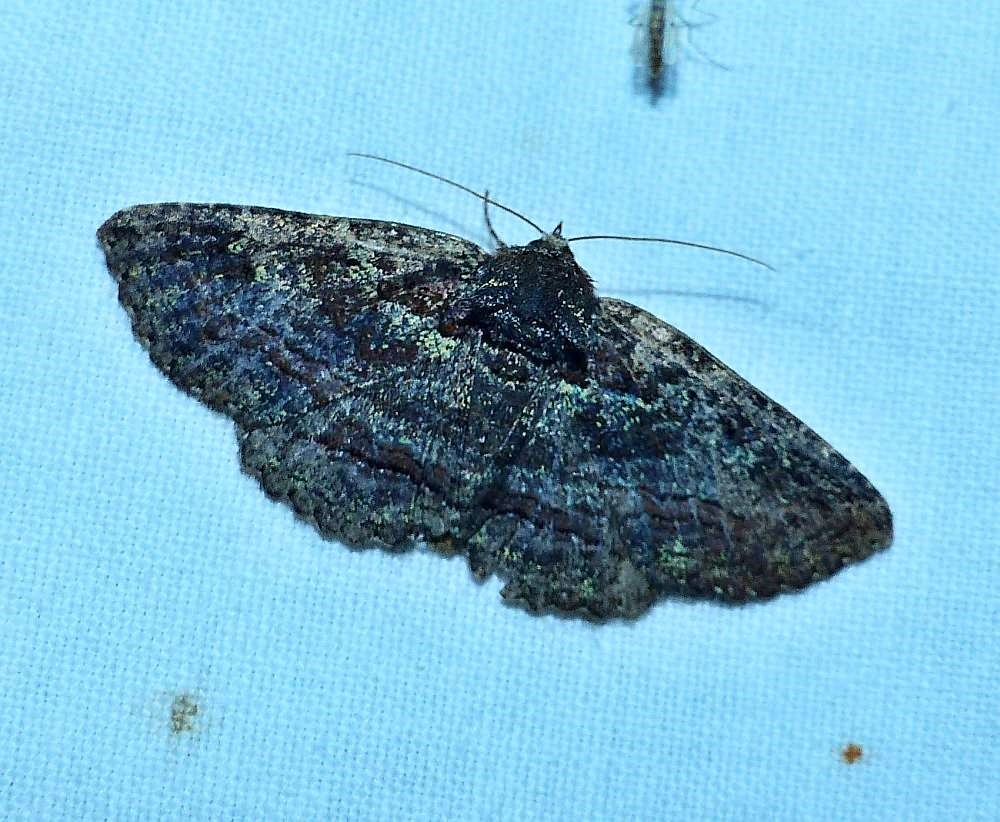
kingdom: Animalia
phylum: Arthropoda
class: Insecta
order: Lepidoptera
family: Erebidae
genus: Zale
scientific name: Zale aeruginosa
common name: Green-dusted zale moth
